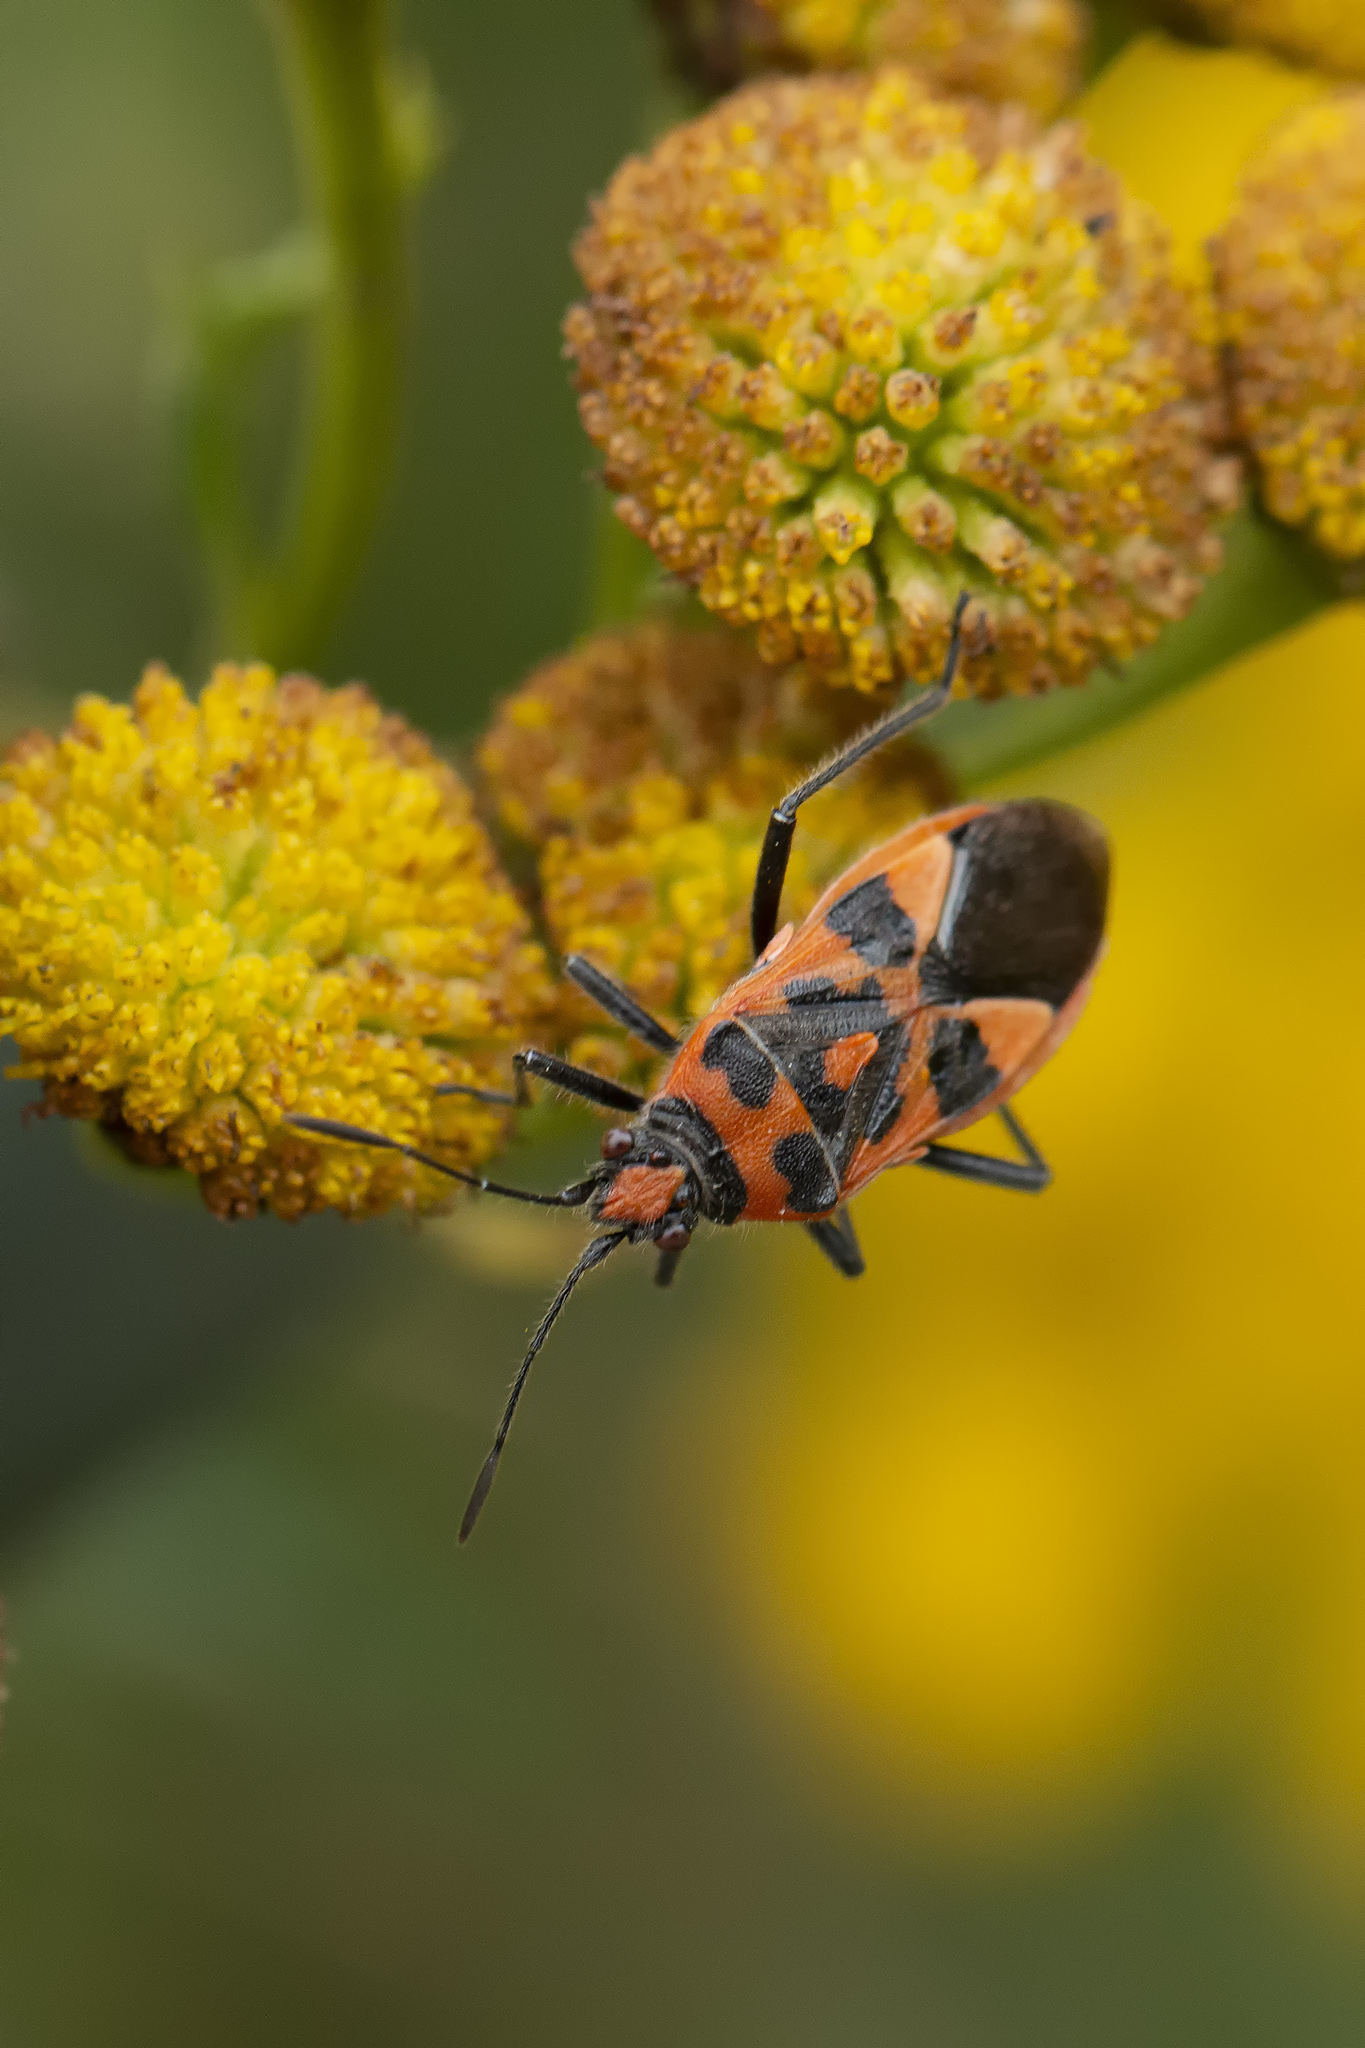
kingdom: Animalia
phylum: Arthropoda
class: Insecta
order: Hemiptera
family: Rhopalidae
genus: Corizus
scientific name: Corizus hyoscyami
